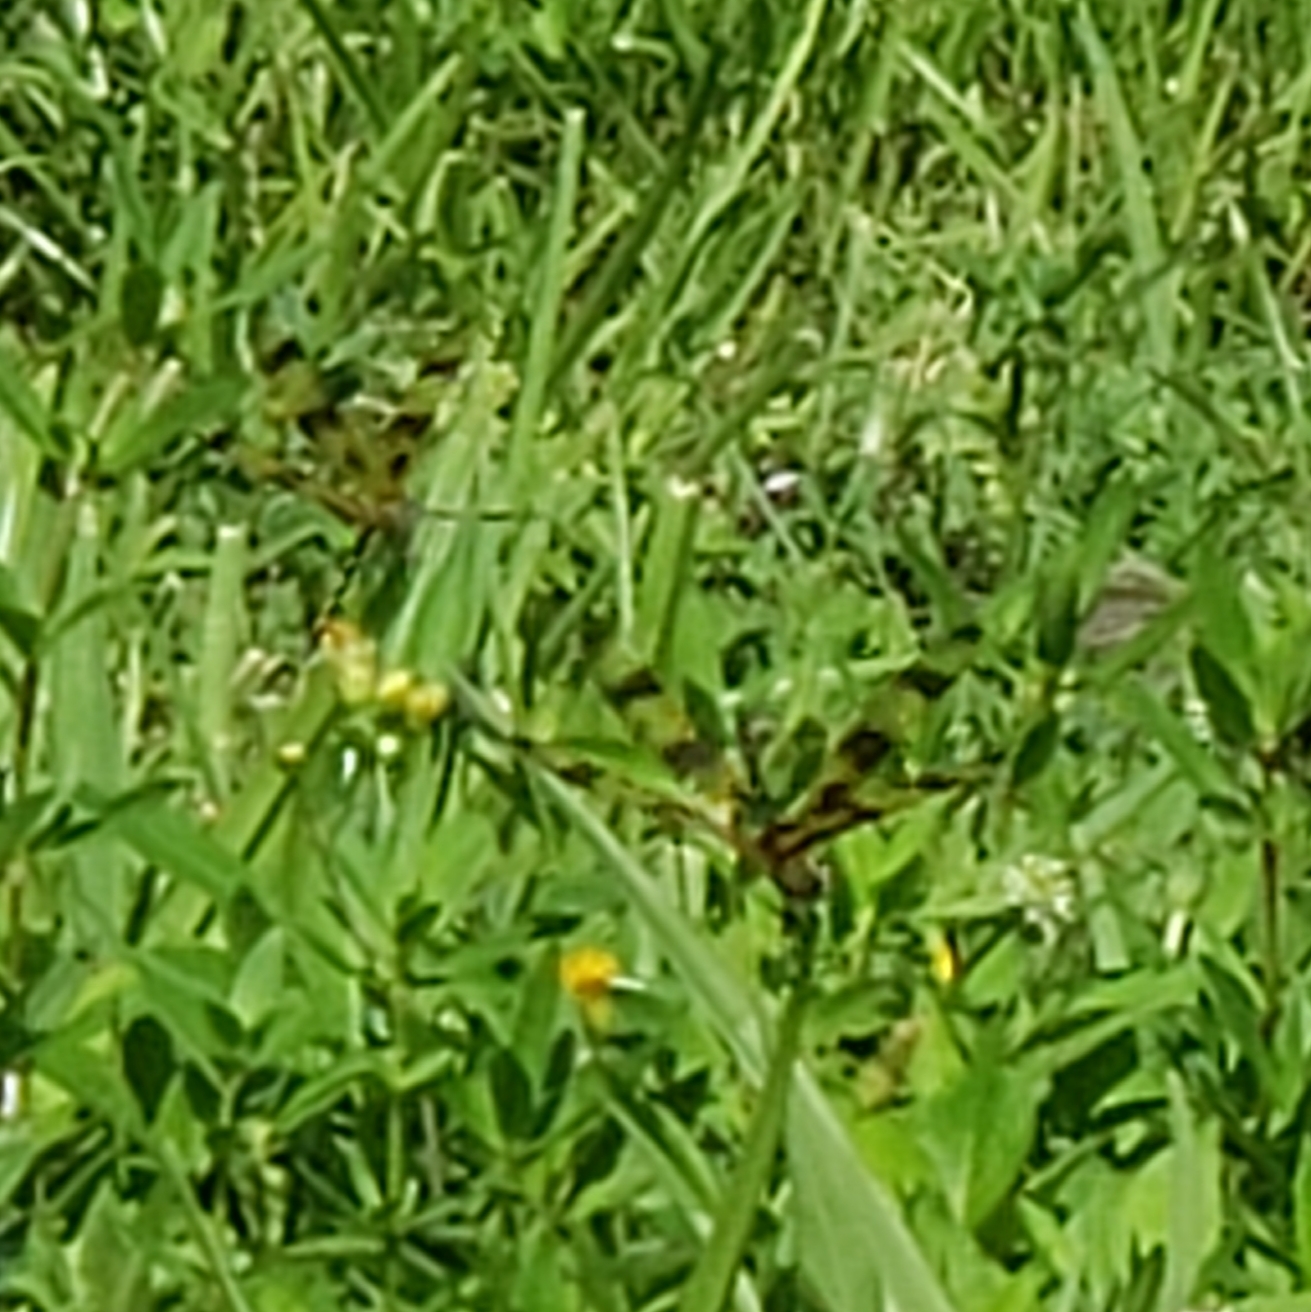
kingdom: Animalia
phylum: Arthropoda
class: Insecta
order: Odonata
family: Libellulidae
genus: Celithemis
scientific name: Celithemis eponina
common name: Halloween pennant
